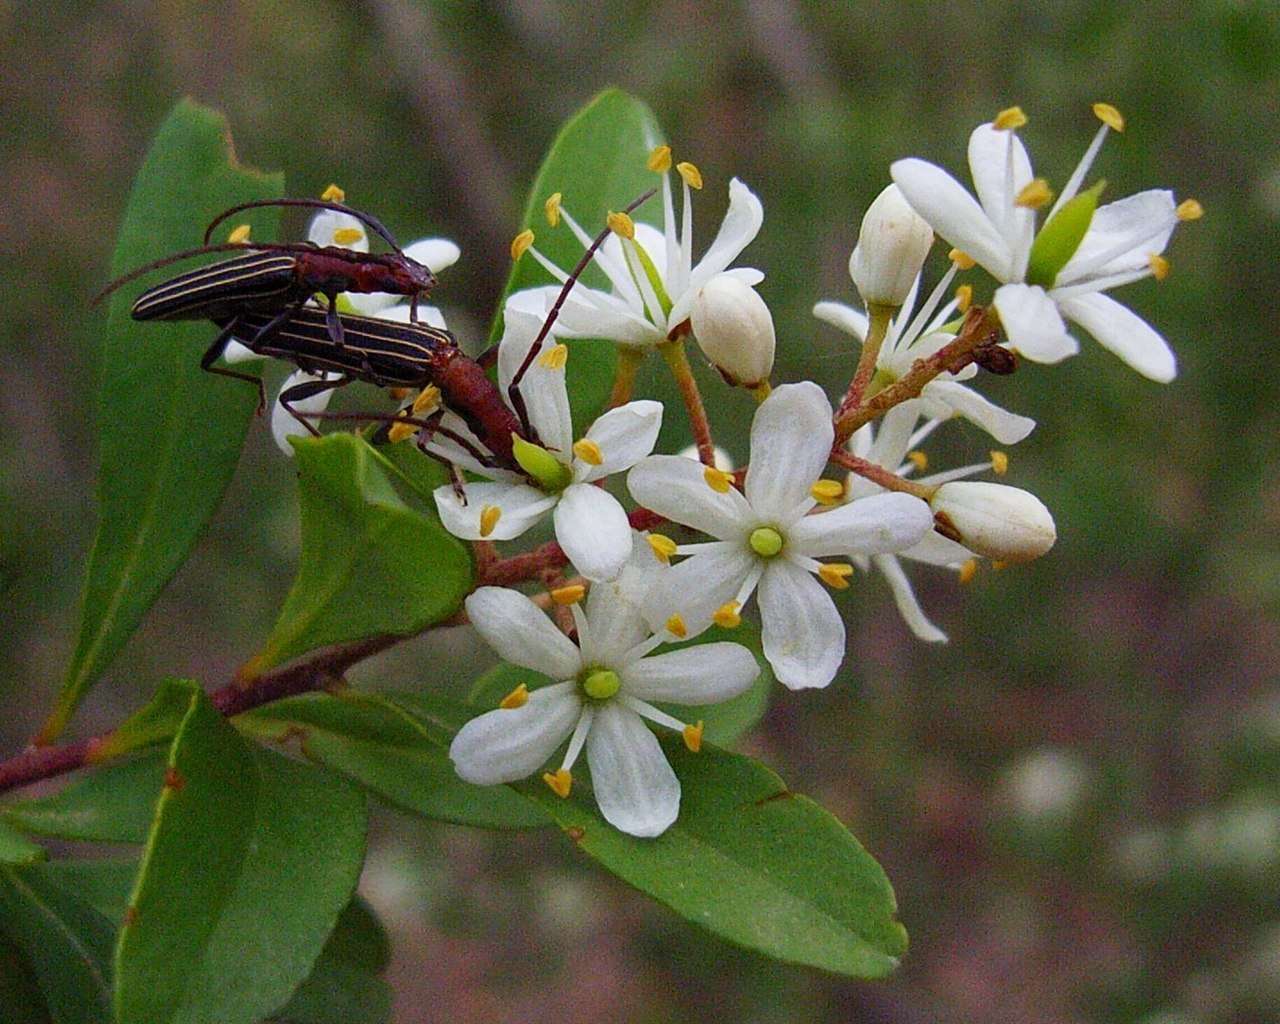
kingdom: Plantae
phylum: Tracheophyta
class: Magnoliopsida
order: Apiales
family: Pittosporaceae
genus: Bursaria
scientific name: Bursaria spinosa
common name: Australian blackthorn
